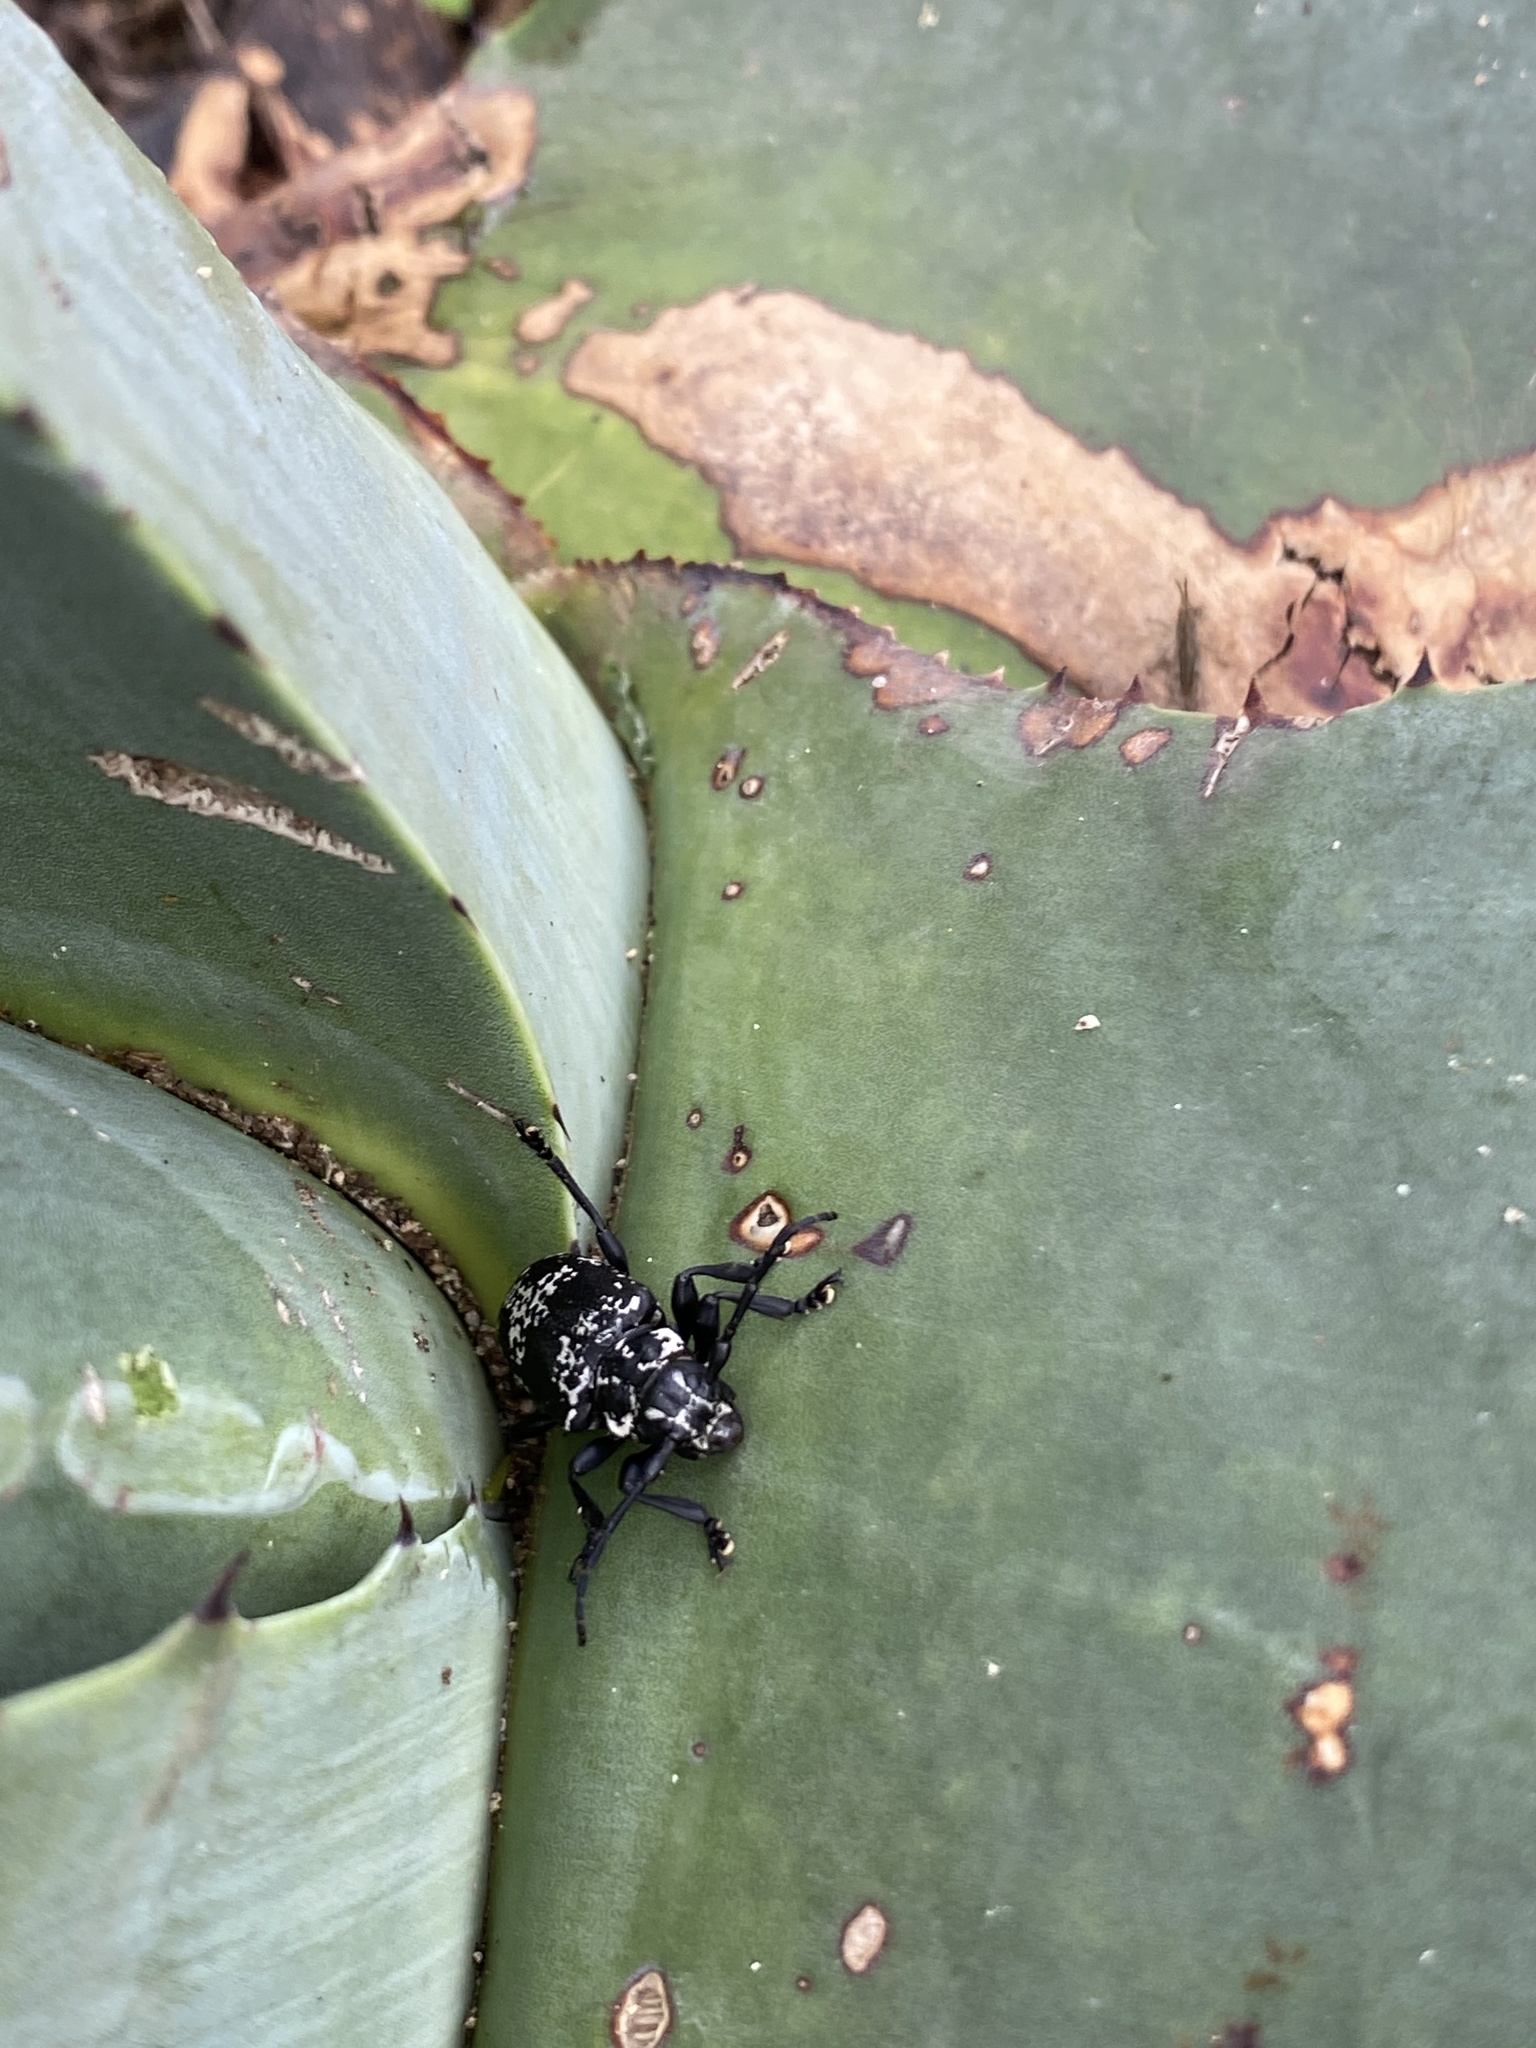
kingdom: Animalia
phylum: Arthropoda
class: Insecta
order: Coleoptera
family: Cerambycidae
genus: Acanthoderes
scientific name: Acanthoderes funeraria
